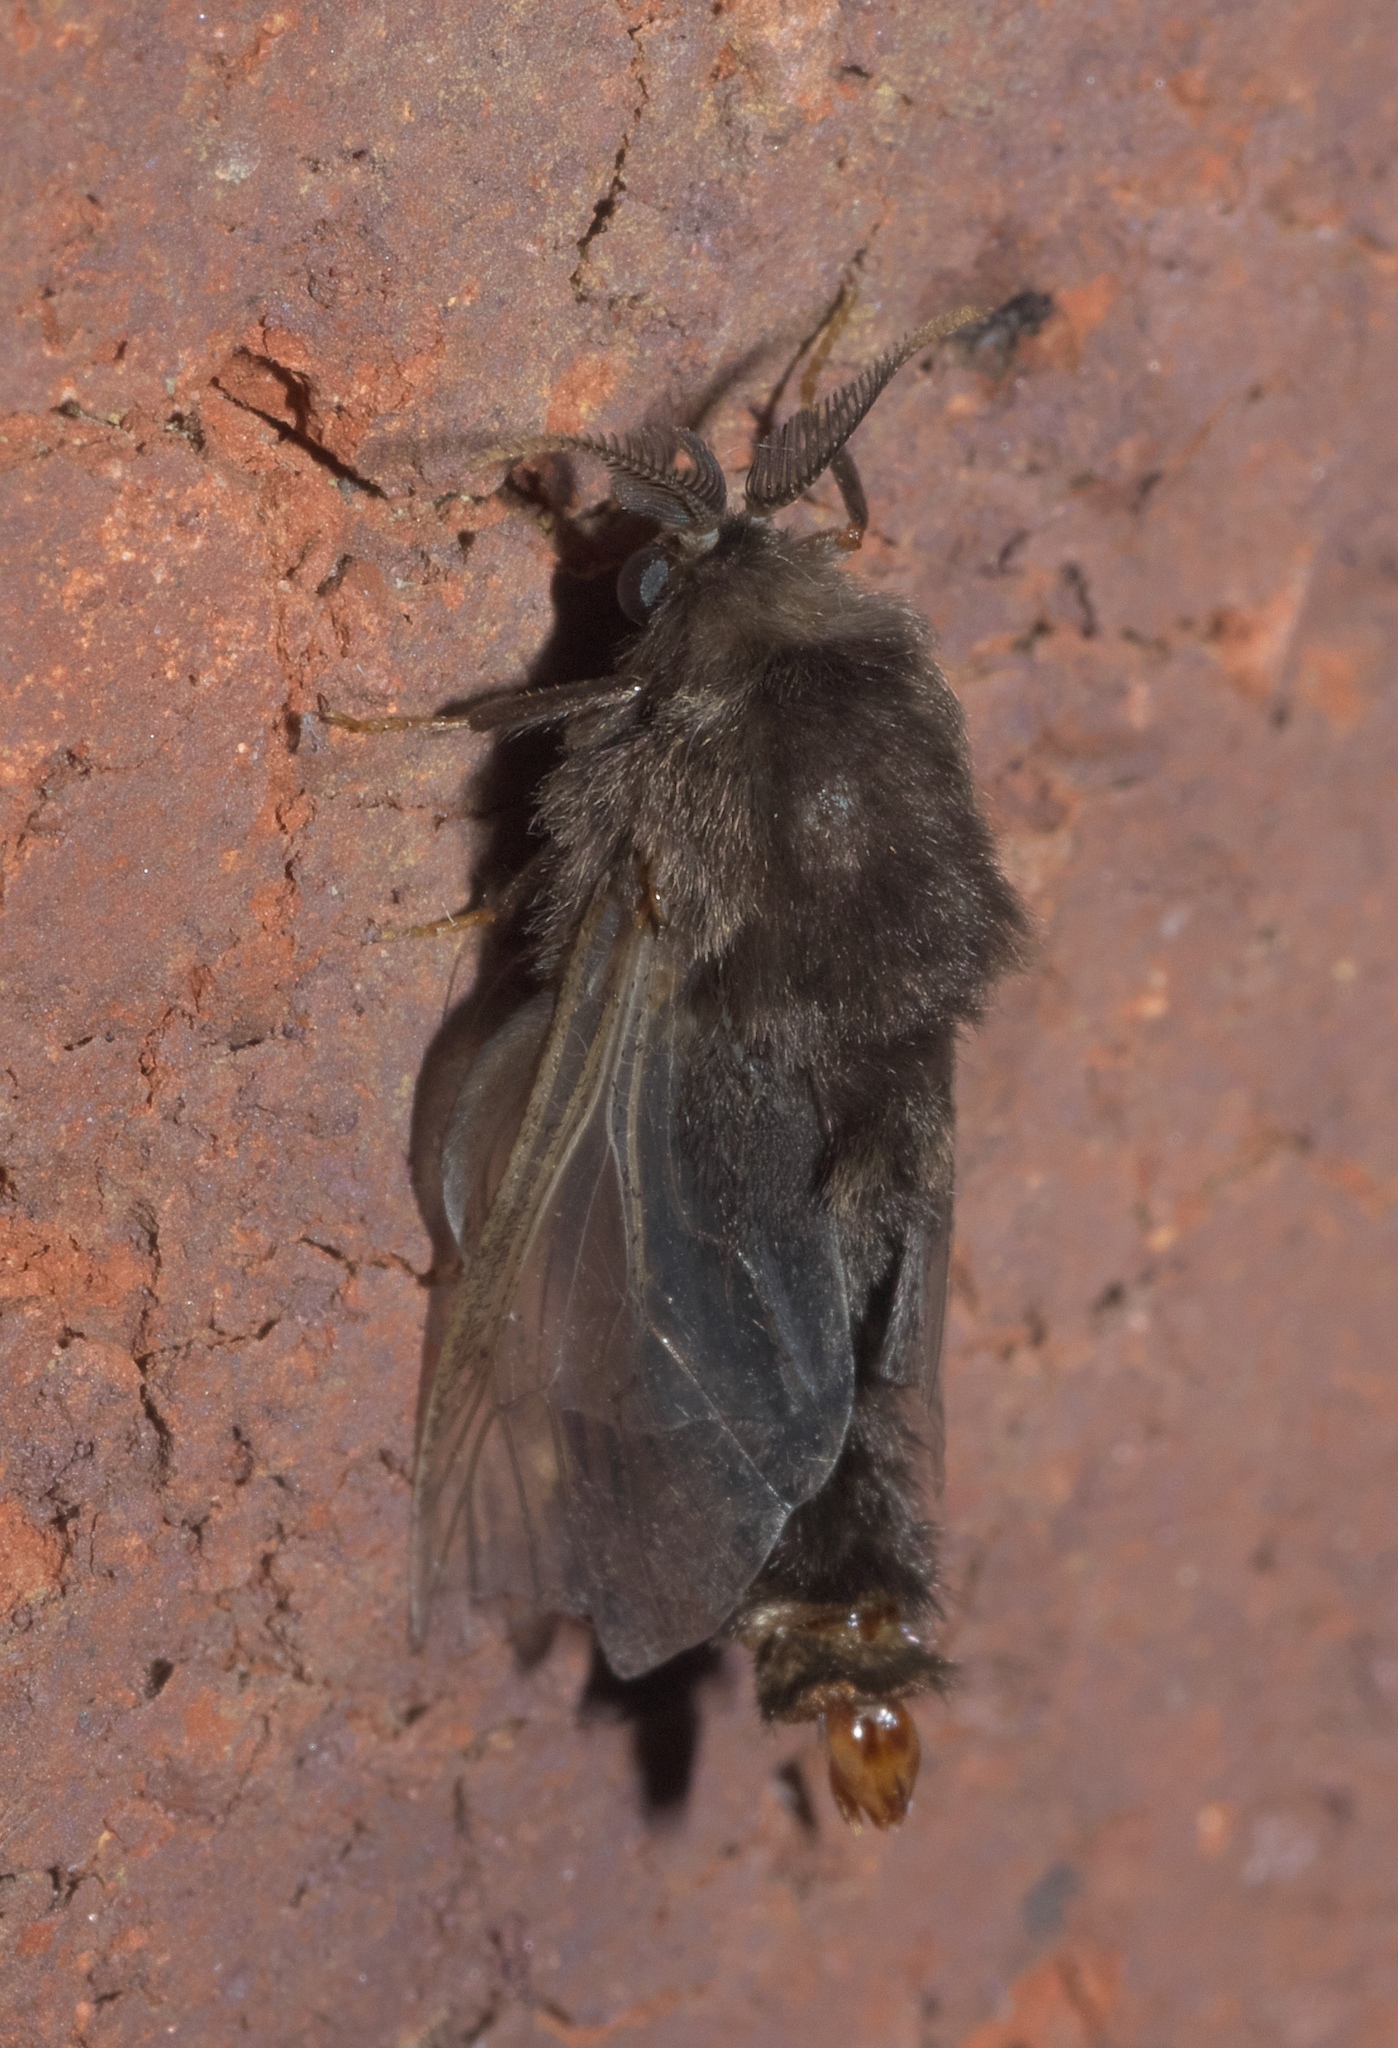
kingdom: Animalia
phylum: Arthropoda
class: Insecta
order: Lepidoptera
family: Psychidae
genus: Thyridopteryx
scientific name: Thyridopteryx ephemeraeformis
